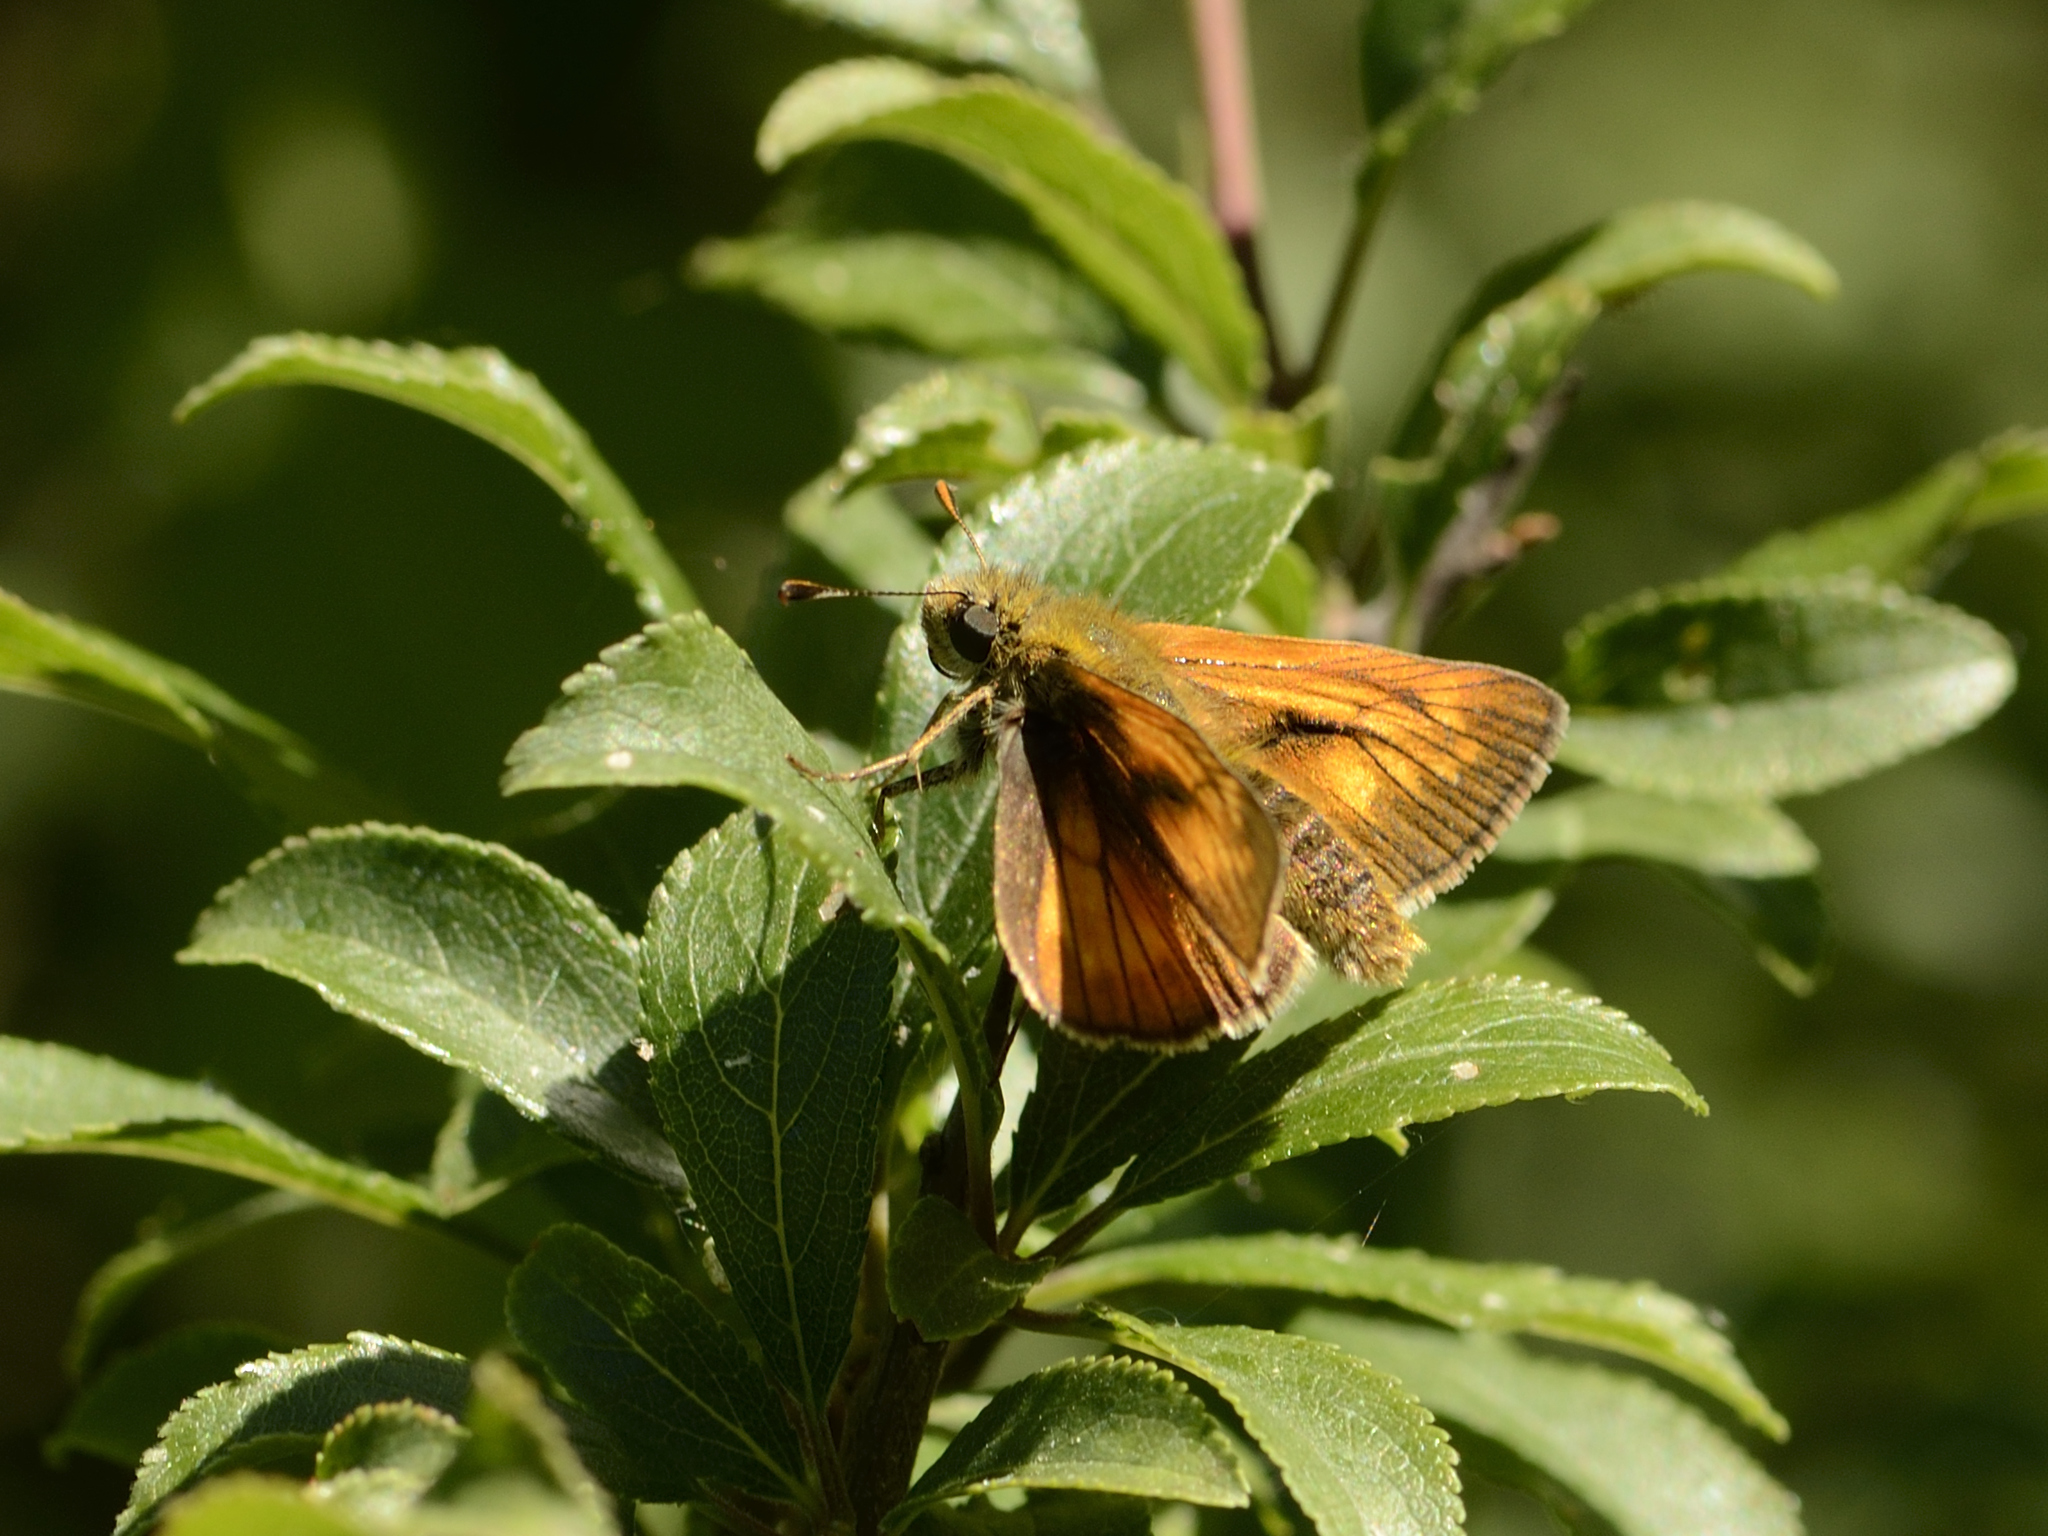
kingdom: Animalia
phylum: Arthropoda
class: Insecta
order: Lepidoptera
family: Hesperiidae
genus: Ochlodes
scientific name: Ochlodes venata
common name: Large skipper
